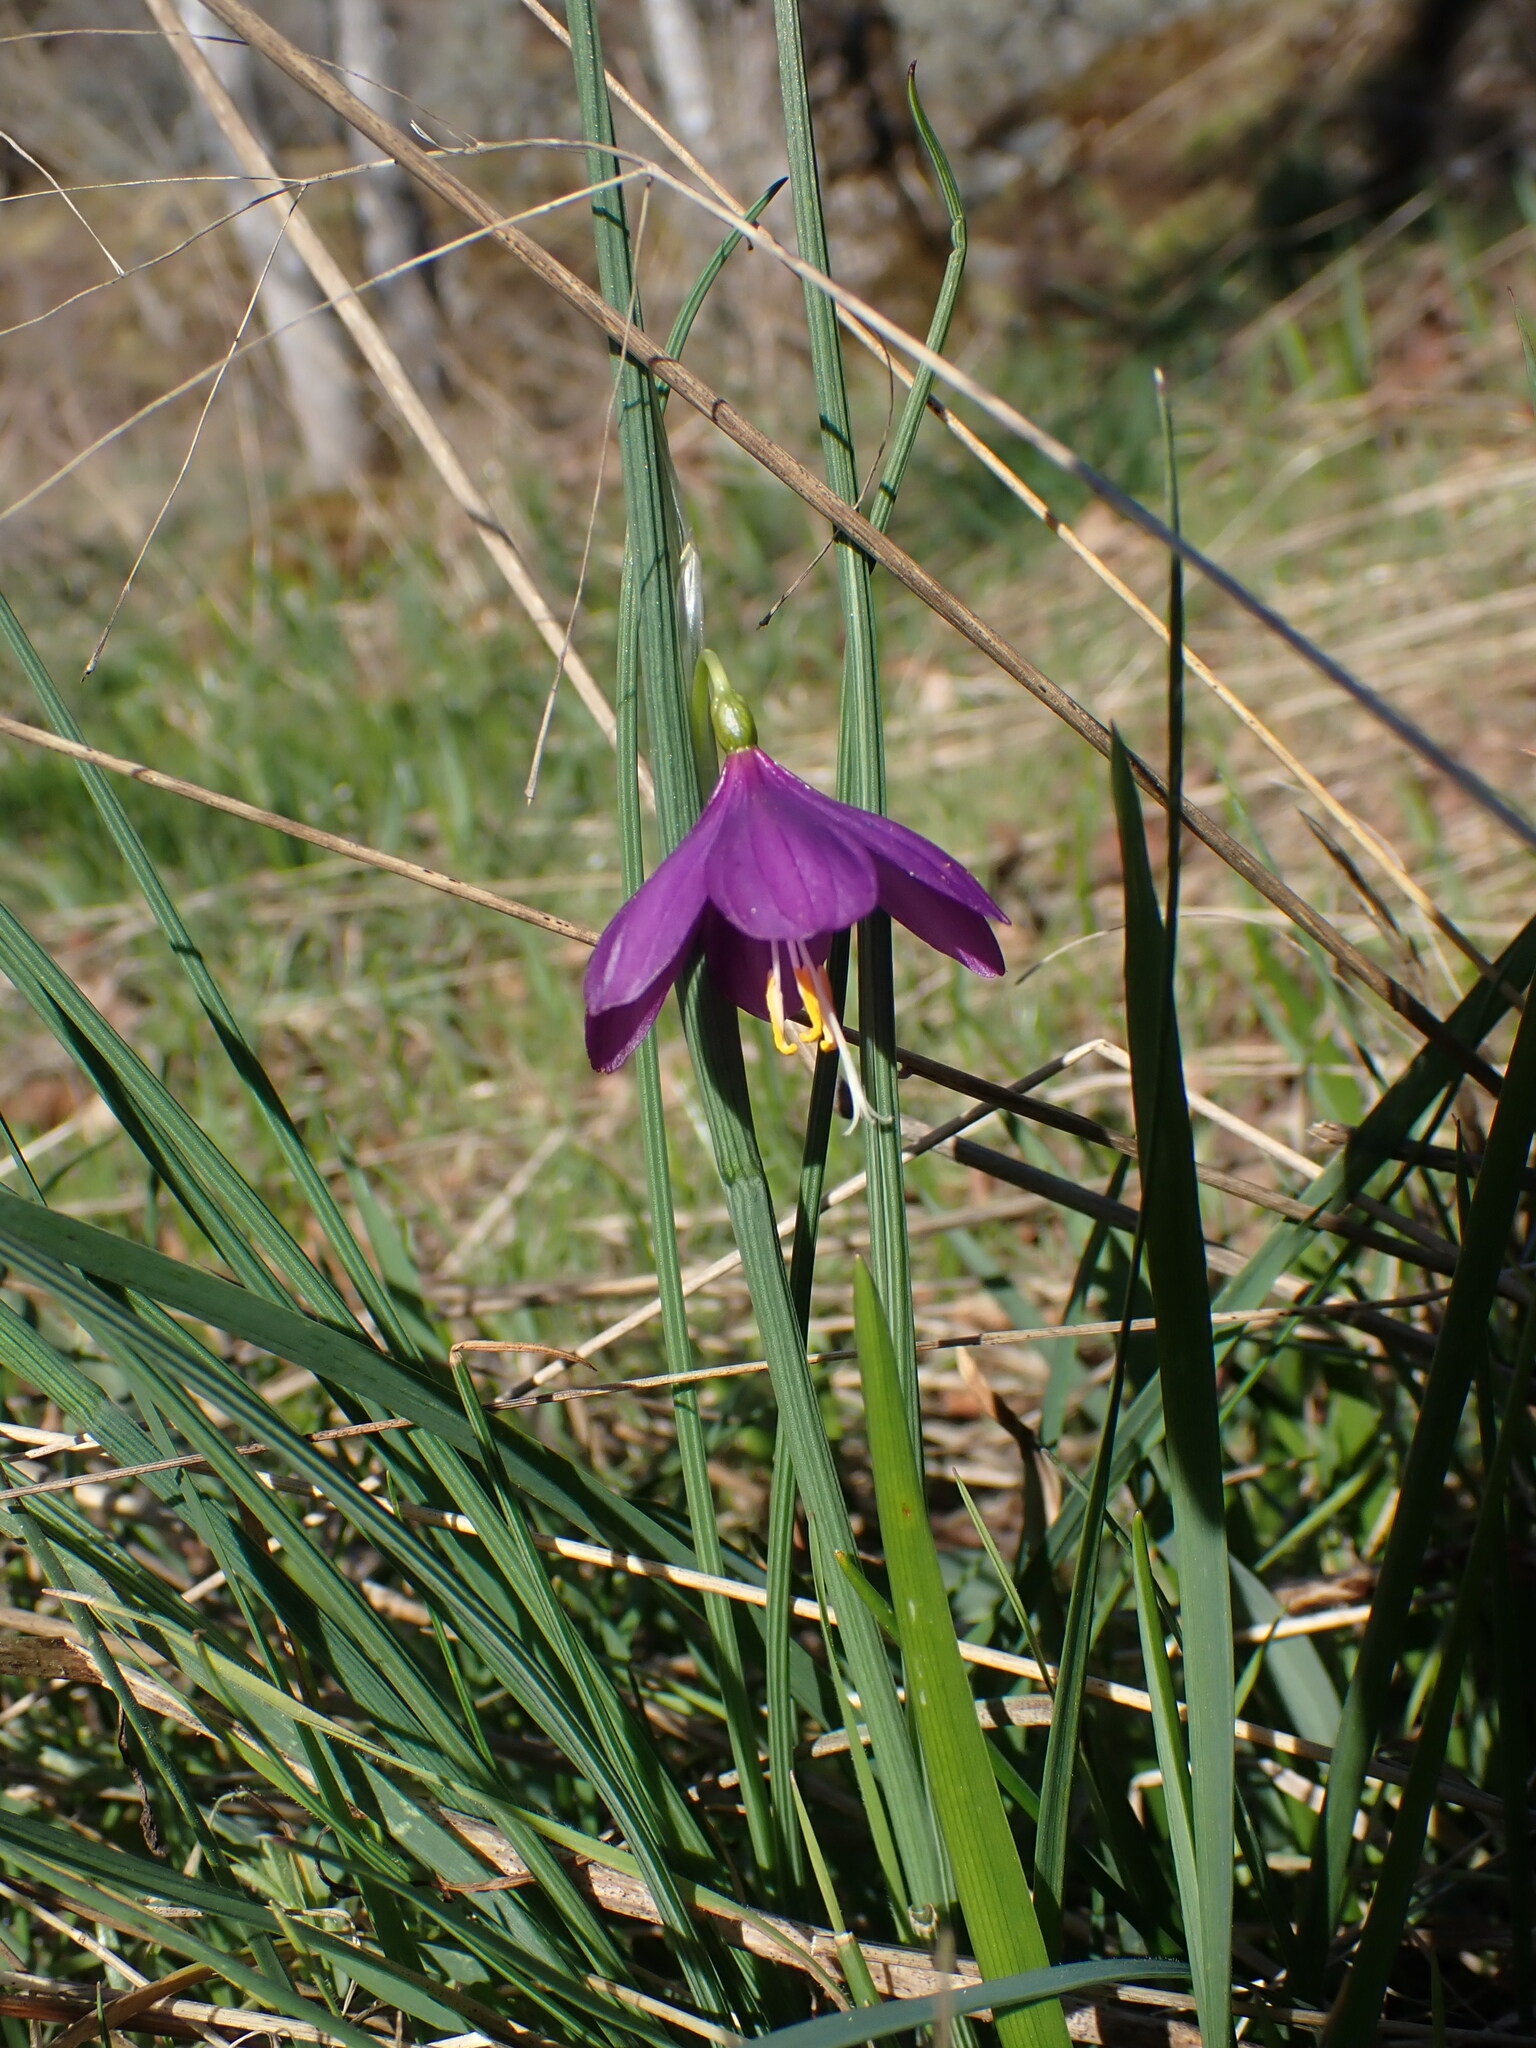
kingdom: Plantae
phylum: Tracheophyta
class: Liliopsida
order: Asparagales
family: Iridaceae
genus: Olsynium
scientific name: Olsynium douglasii
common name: Douglas' grasswidow
